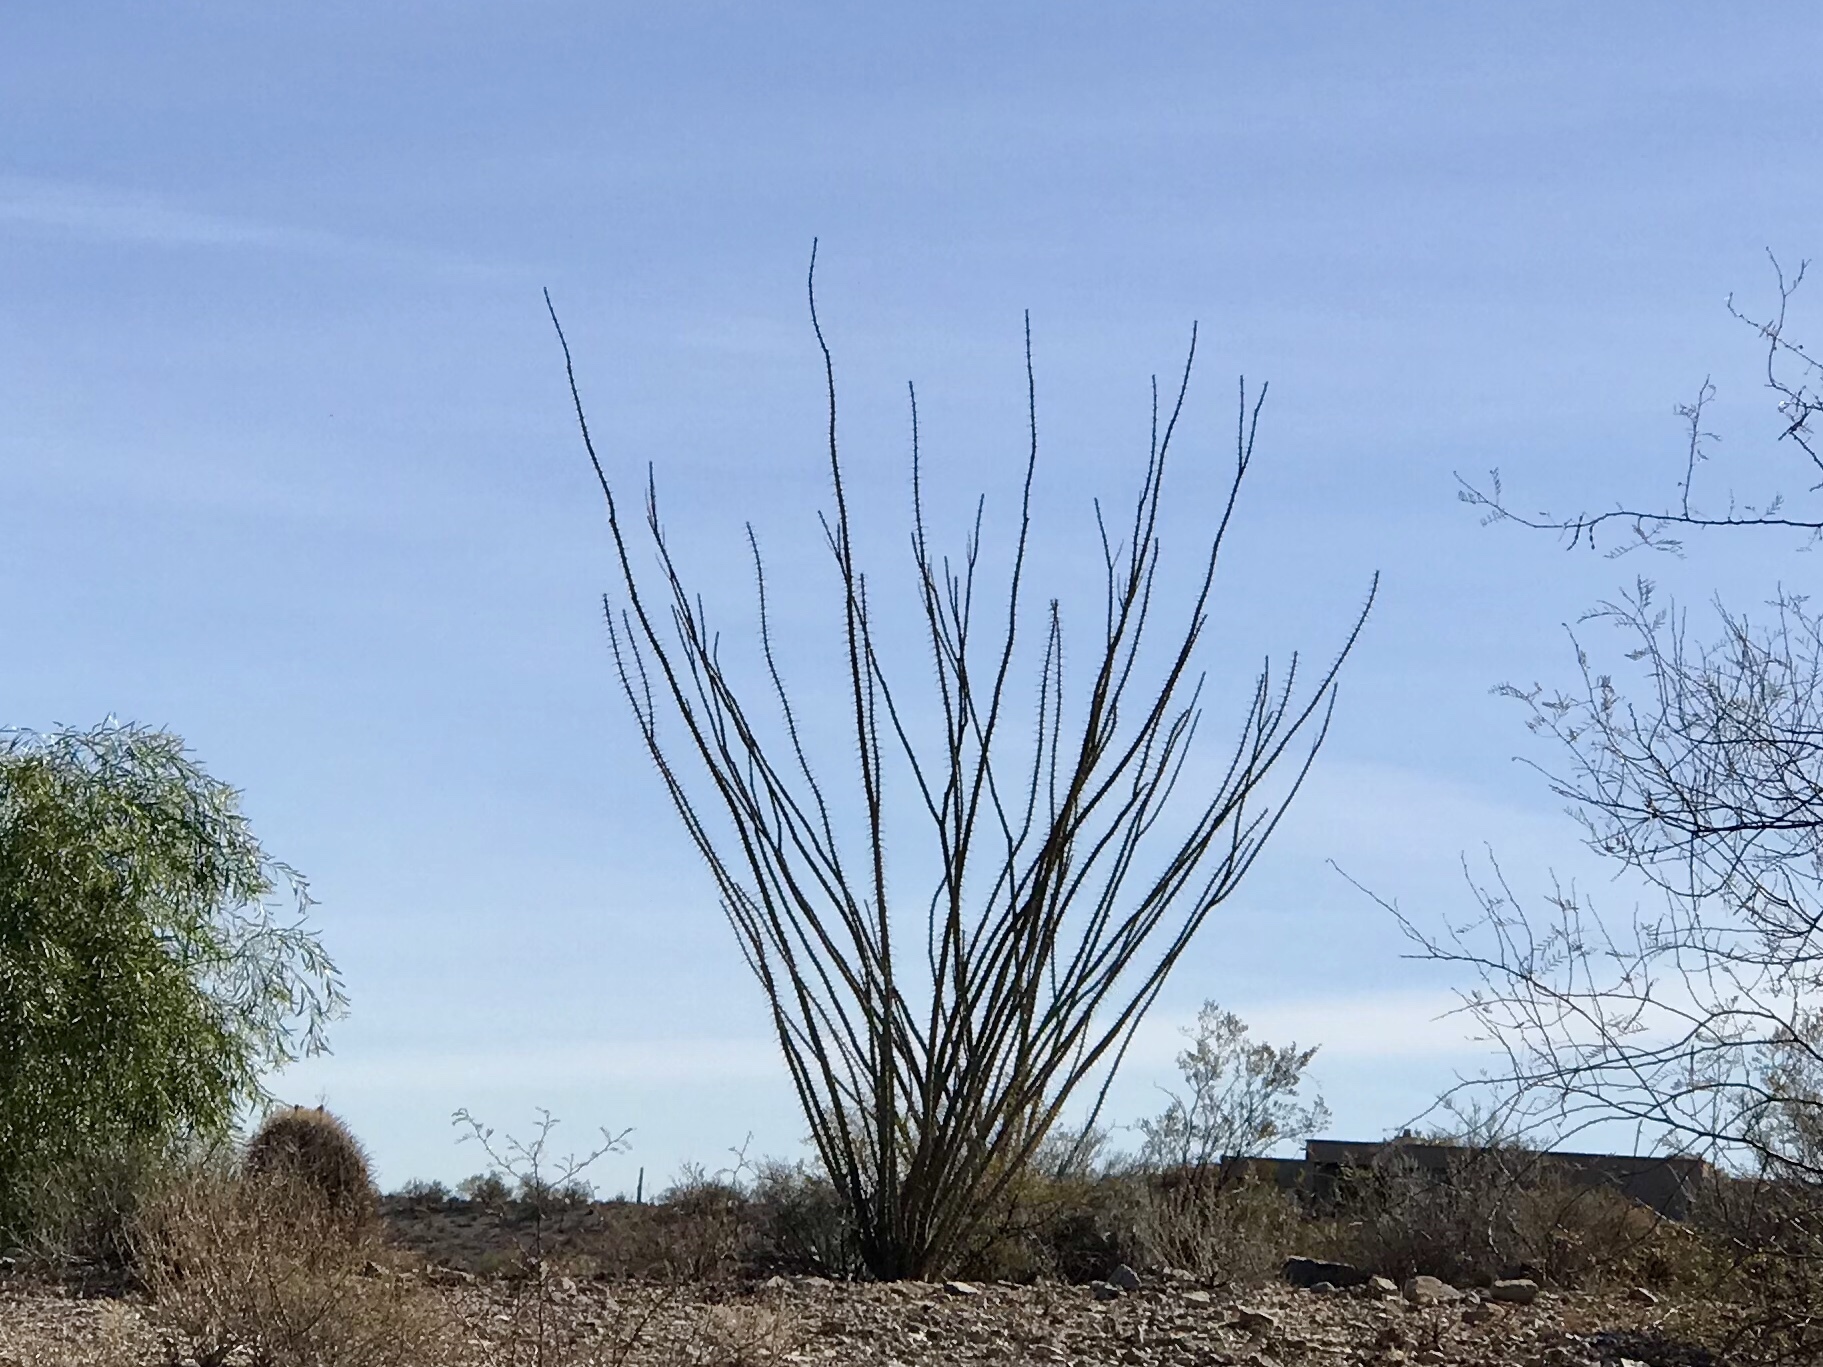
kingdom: Plantae
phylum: Tracheophyta
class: Magnoliopsida
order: Ericales
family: Fouquieriaceae
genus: Fouquieria
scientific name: Fouquieria splendens
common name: Vine-cactus
